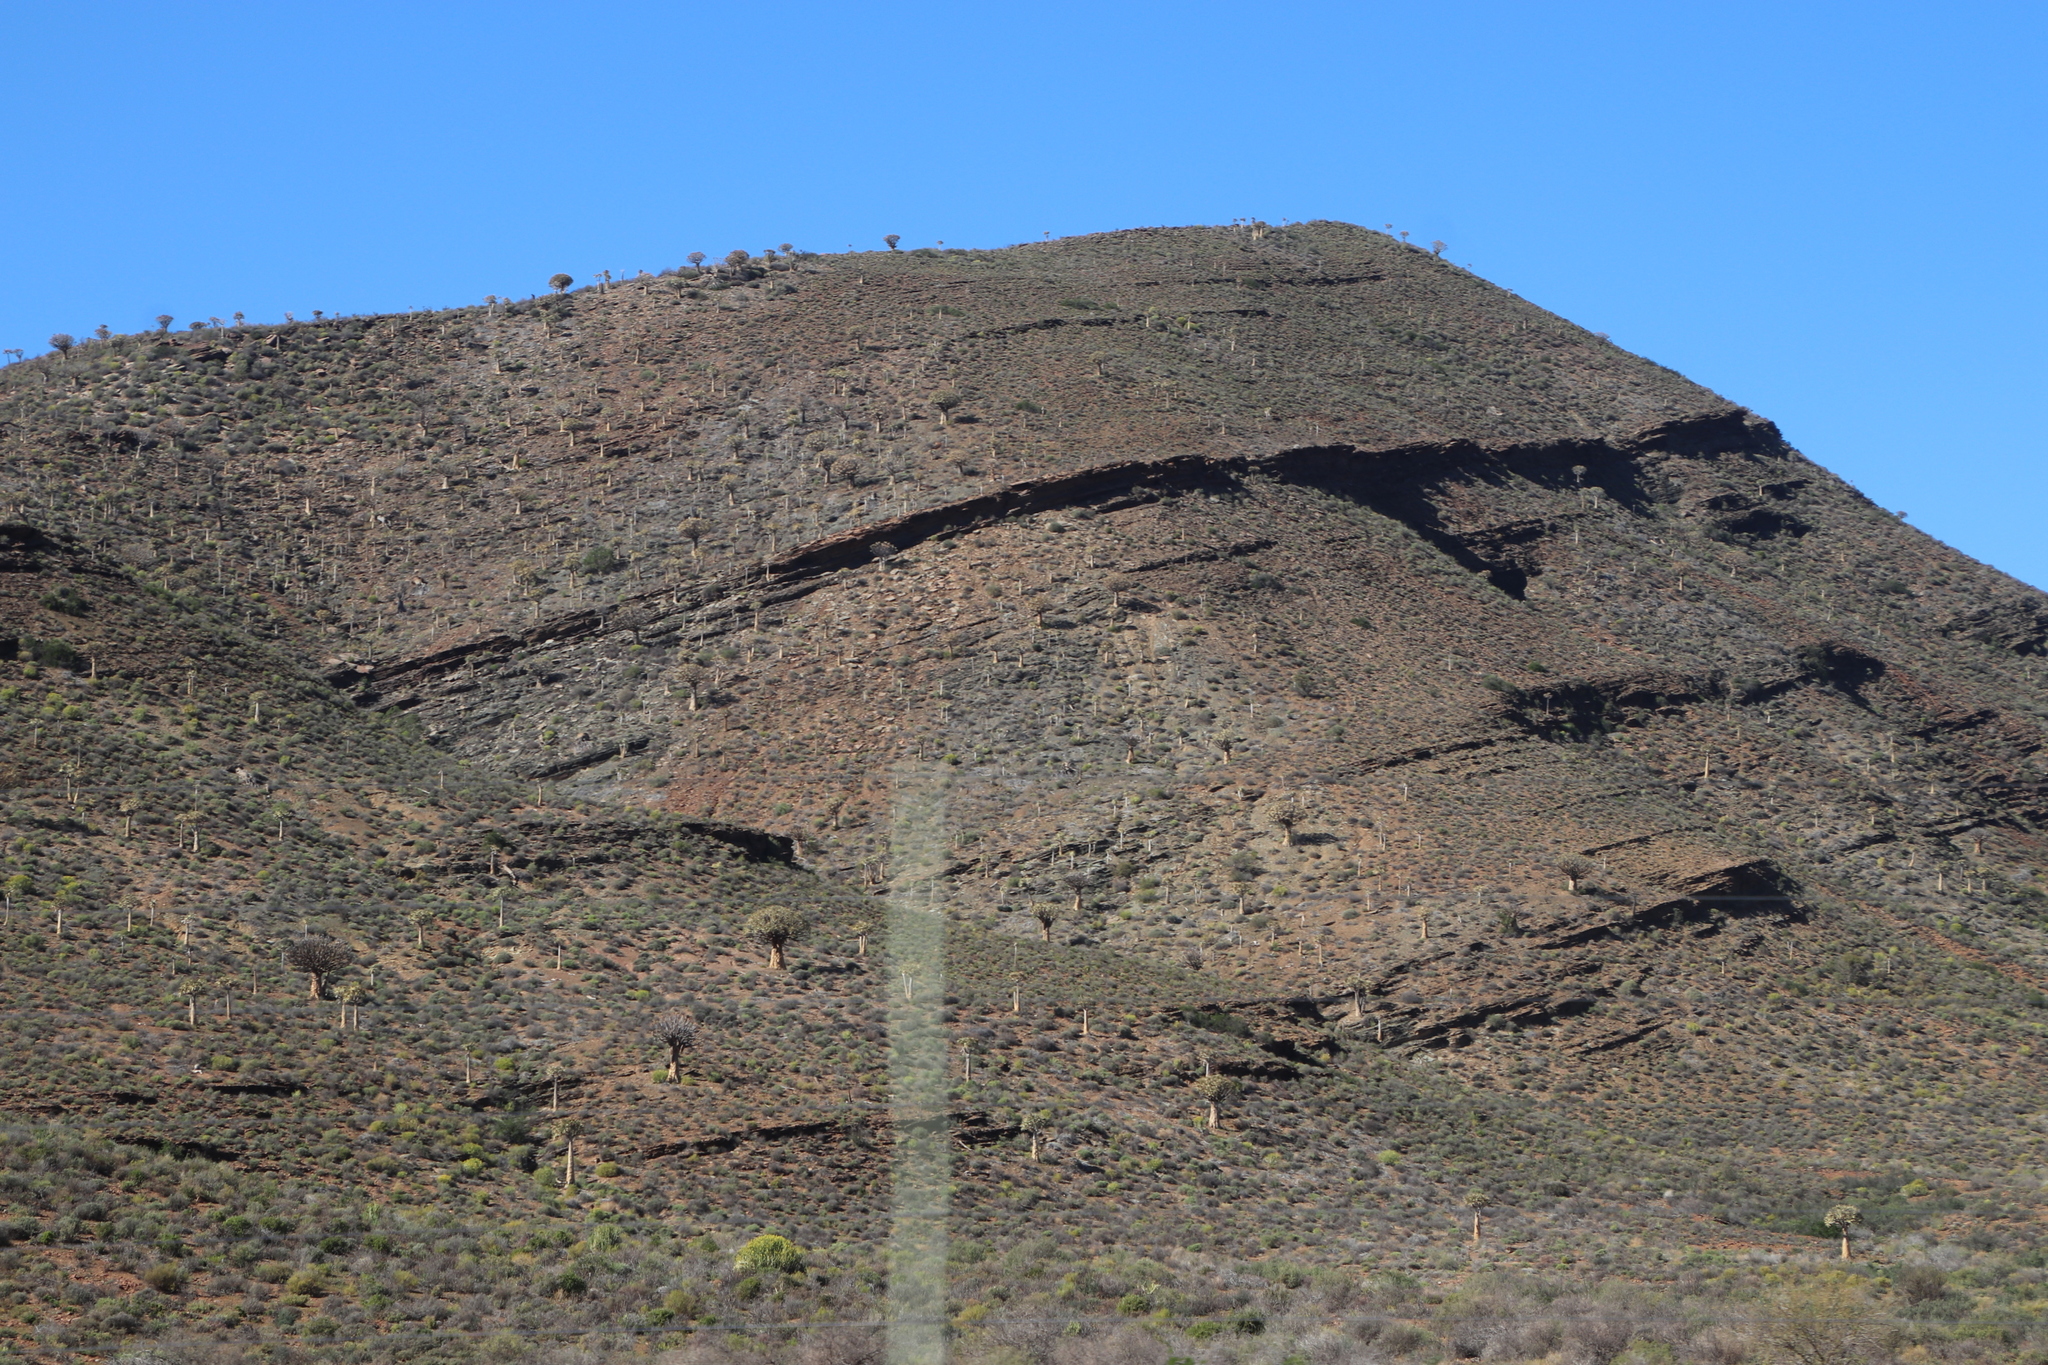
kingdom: Plantae
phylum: Tracheophyta
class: Liliopsida
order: Asparagales
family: Asphodelaceae
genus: Aloidendron
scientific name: Aloidendron dichotomum
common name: Quiver tree
